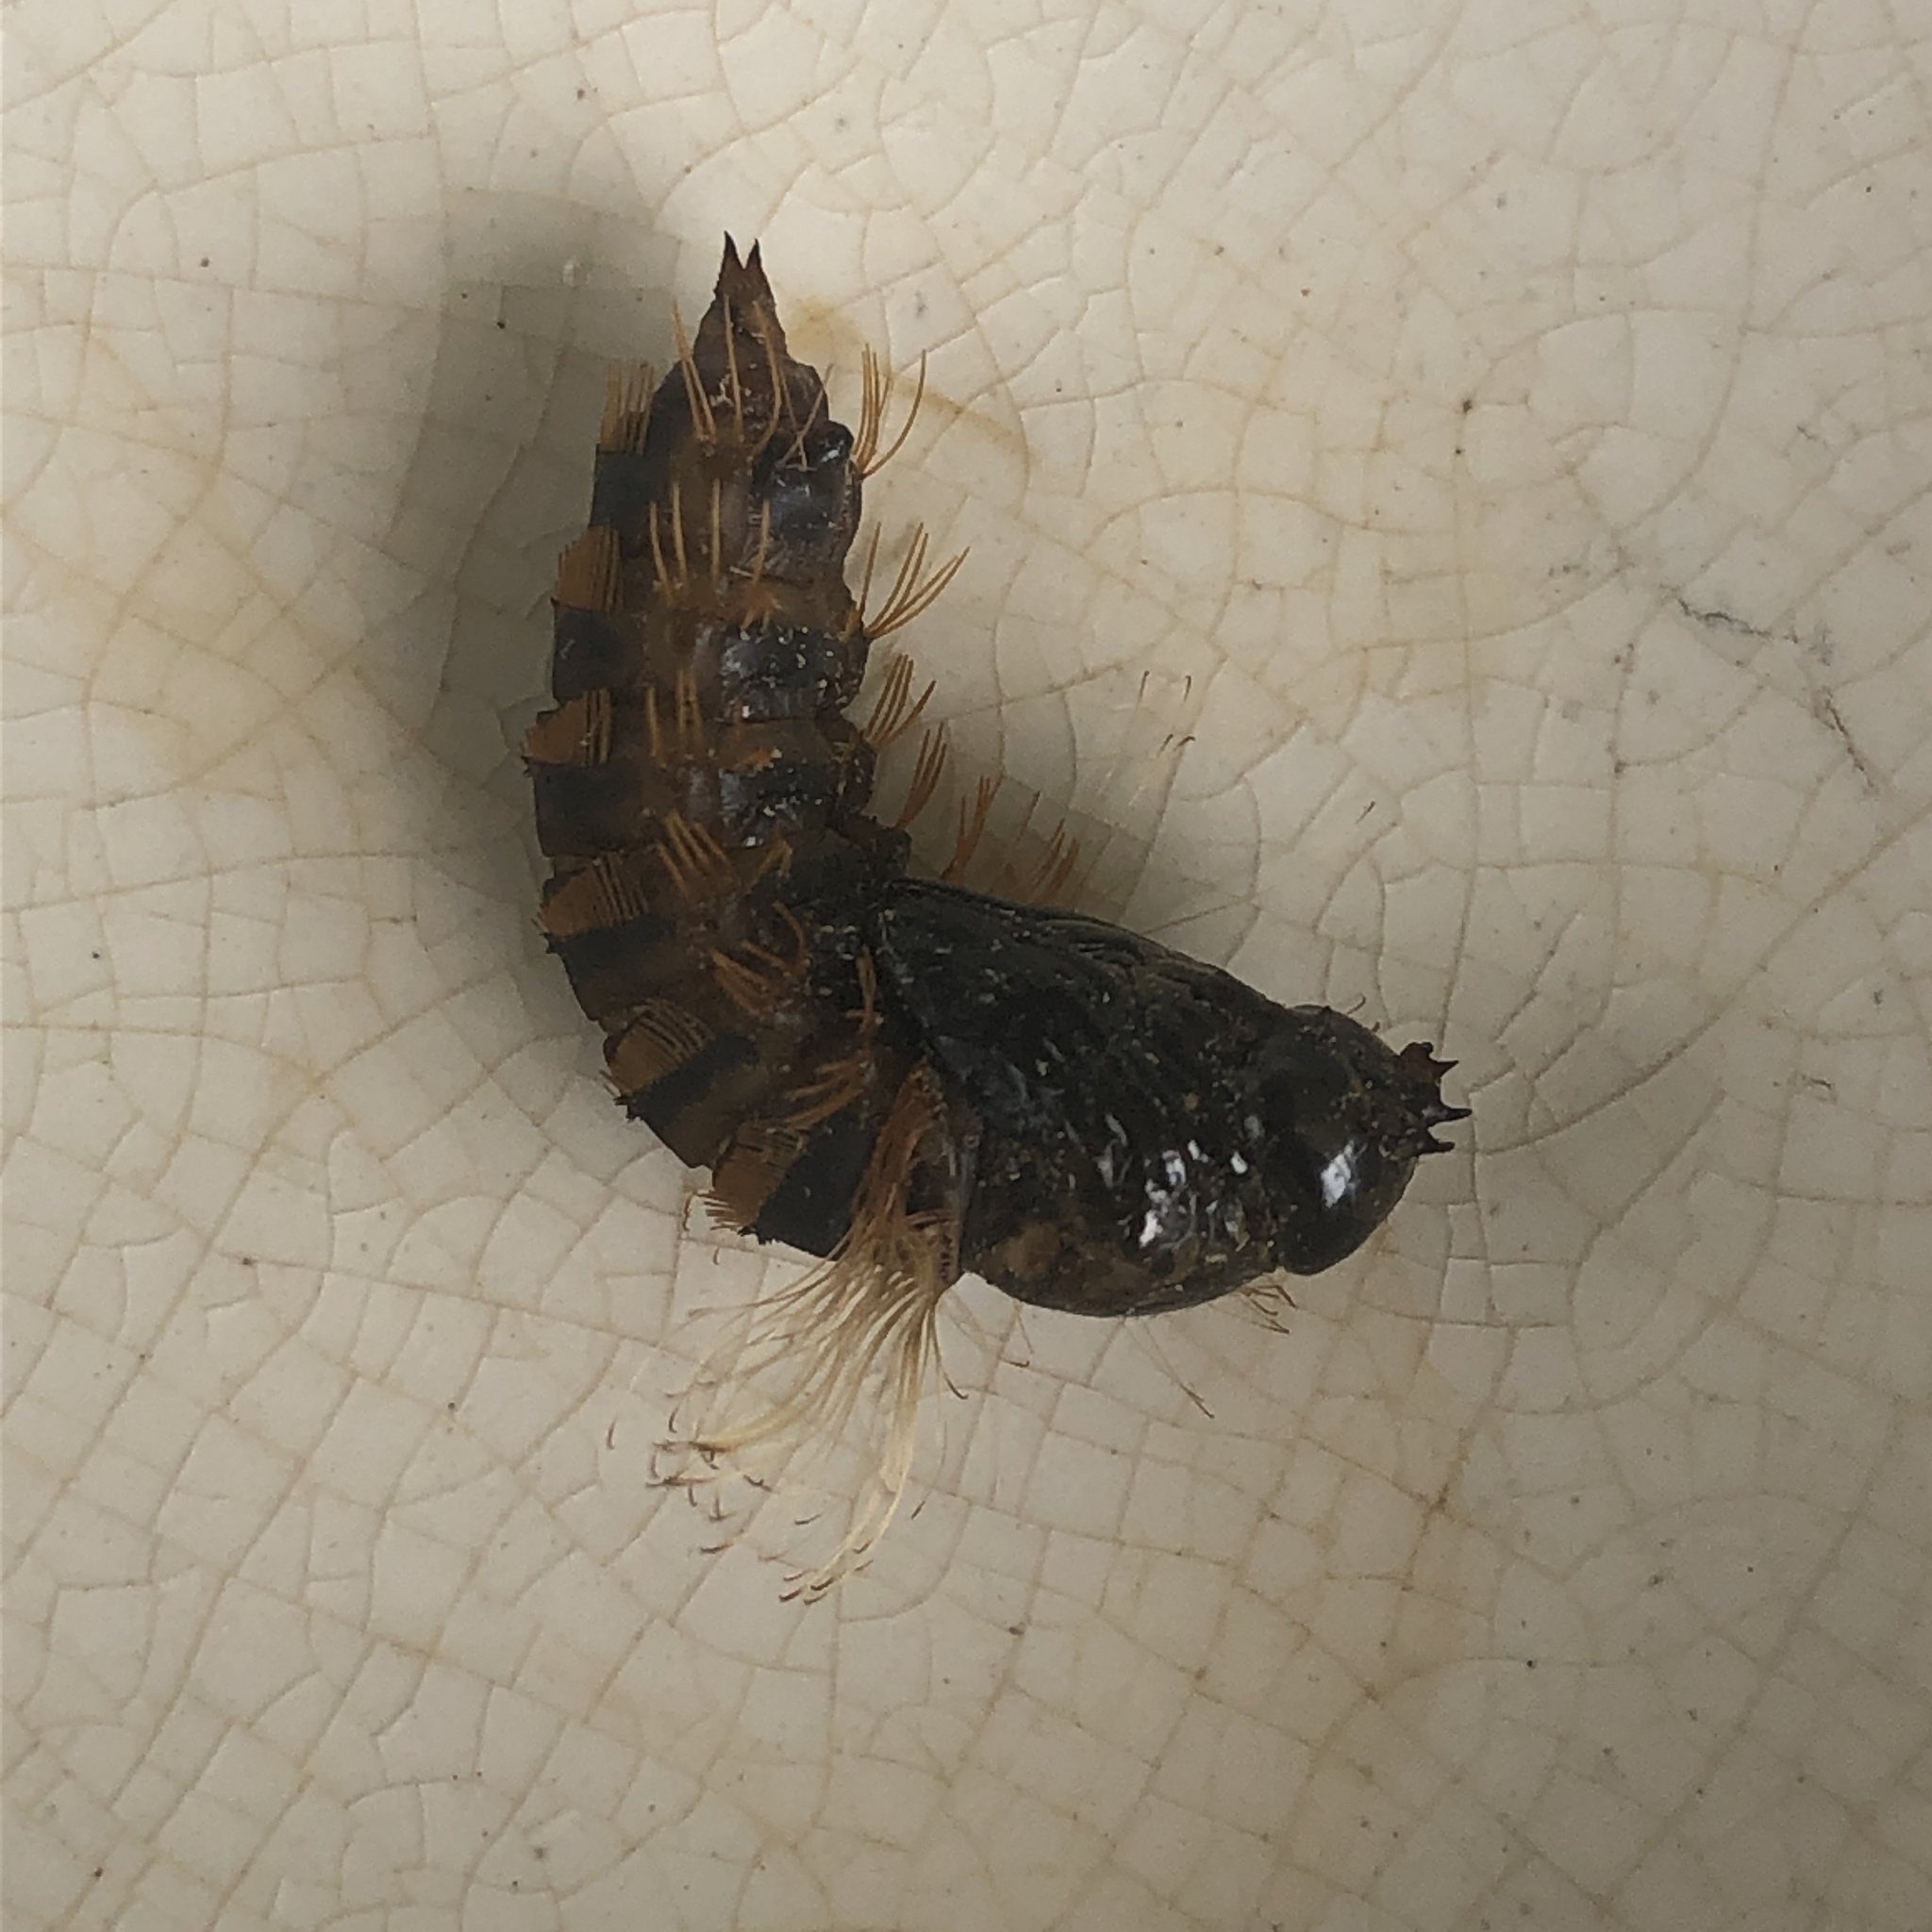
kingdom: Animalia
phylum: Arthropoda
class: Insecta
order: Diptera
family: Bombyliidae
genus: Xenox
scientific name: Xenox tigrinus
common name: Tiger bee fly
